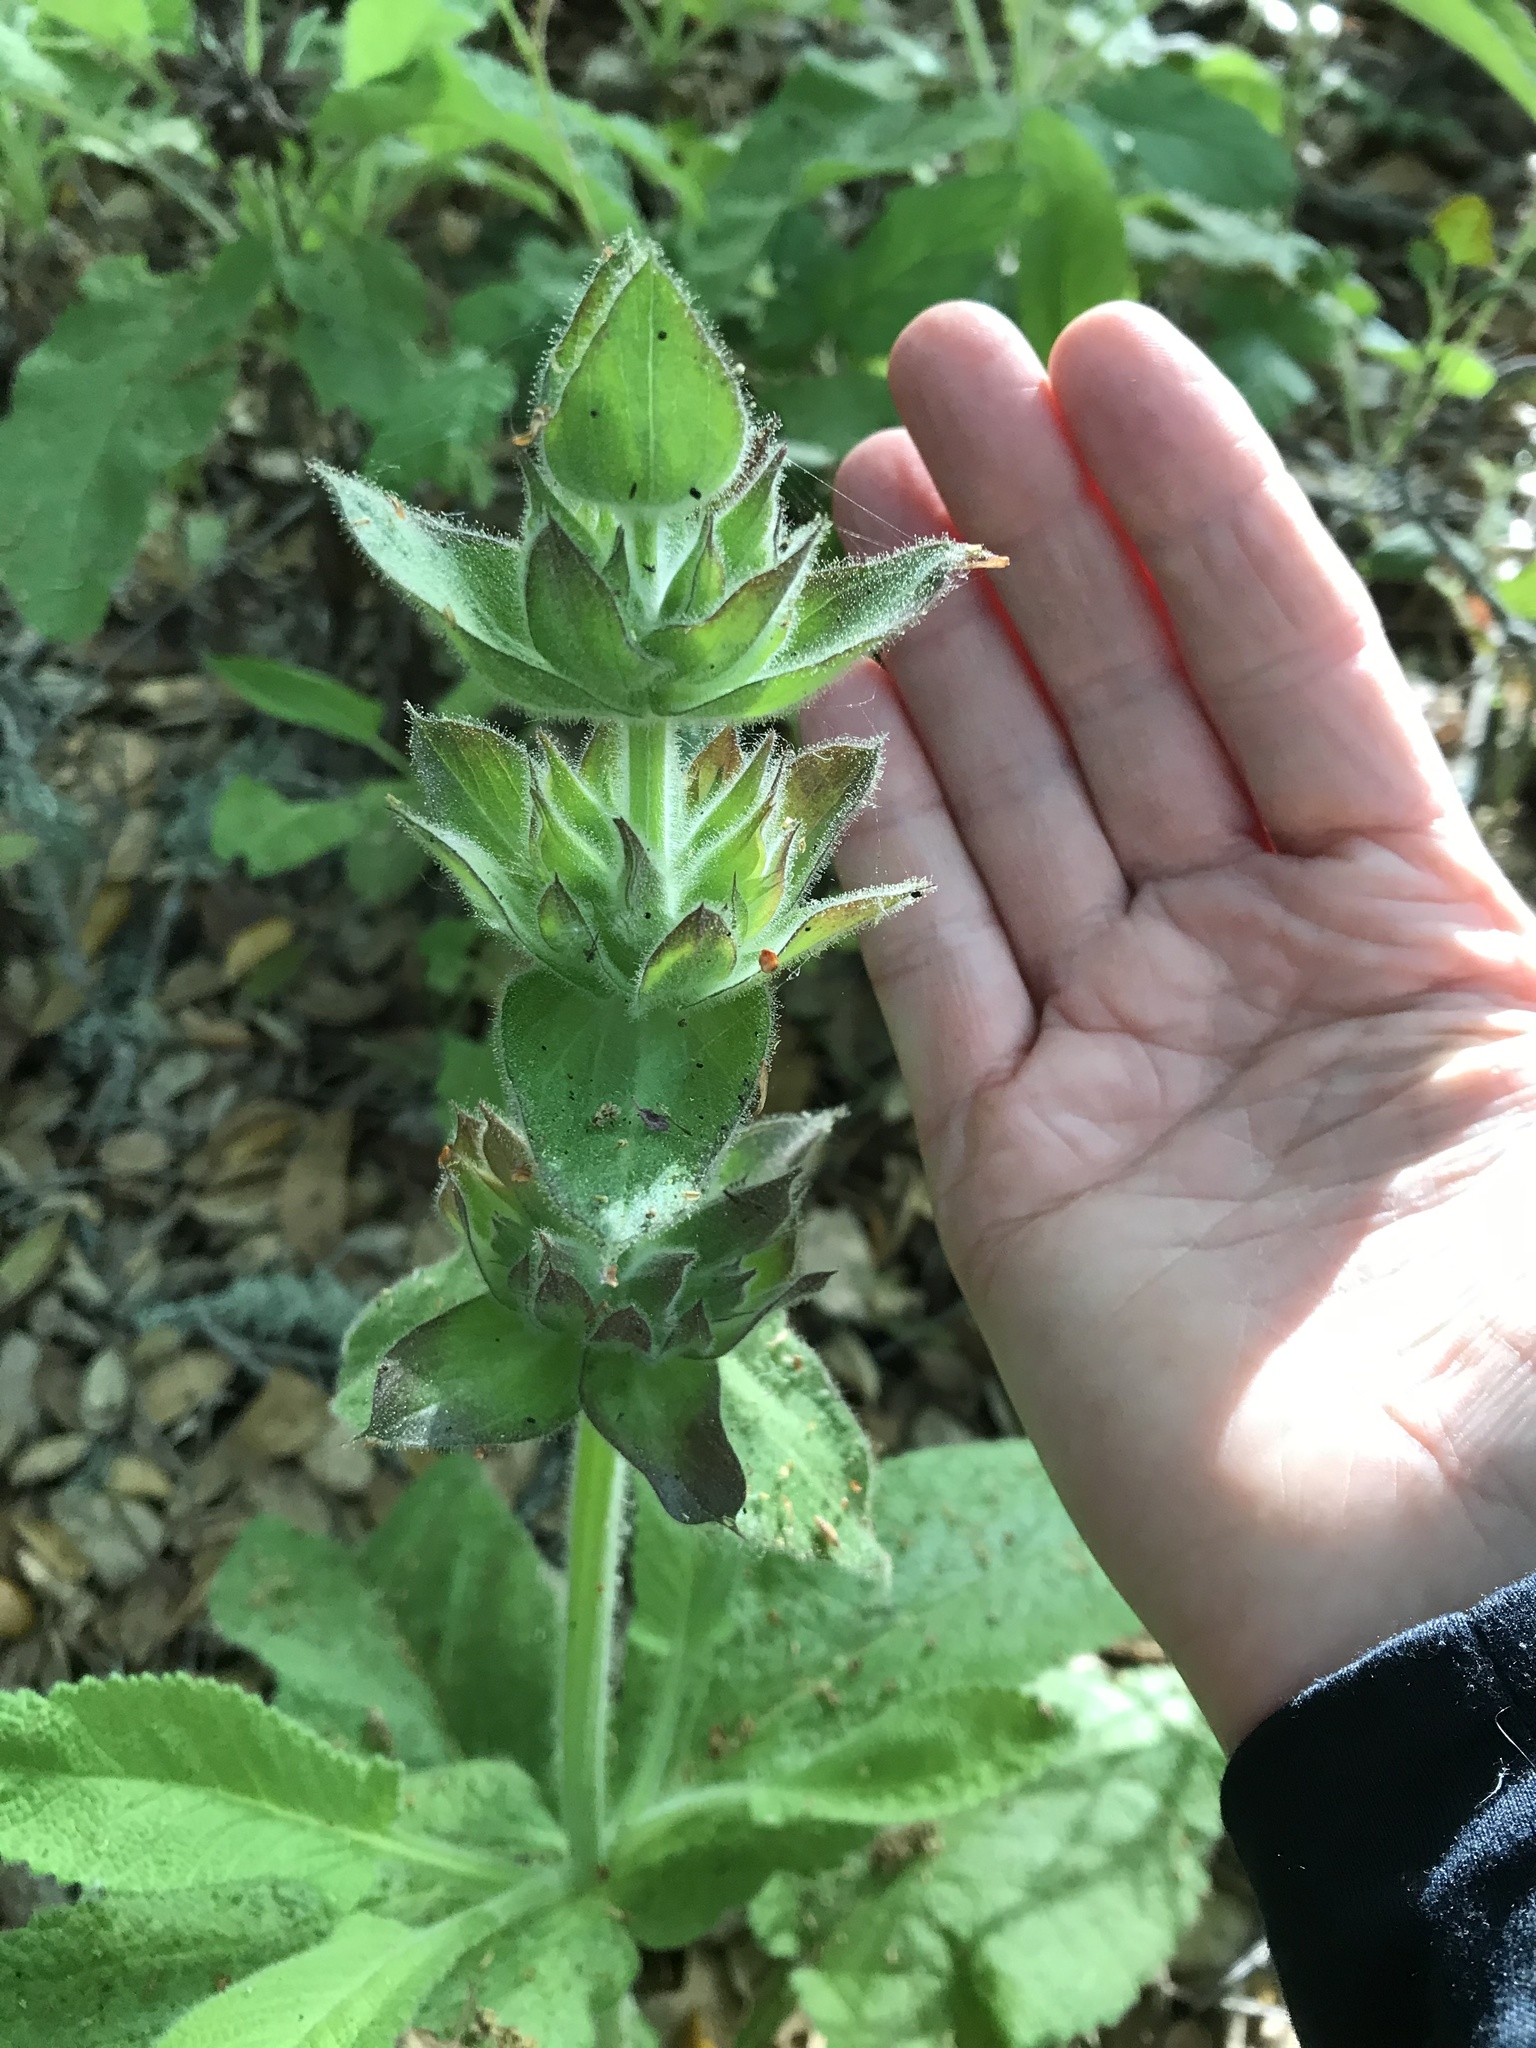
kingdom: Plantae
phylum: Tracheophyta
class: Magnoliopsida
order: Lamiales
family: Lamiaceae
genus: Salvia
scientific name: Salvia spathacea
